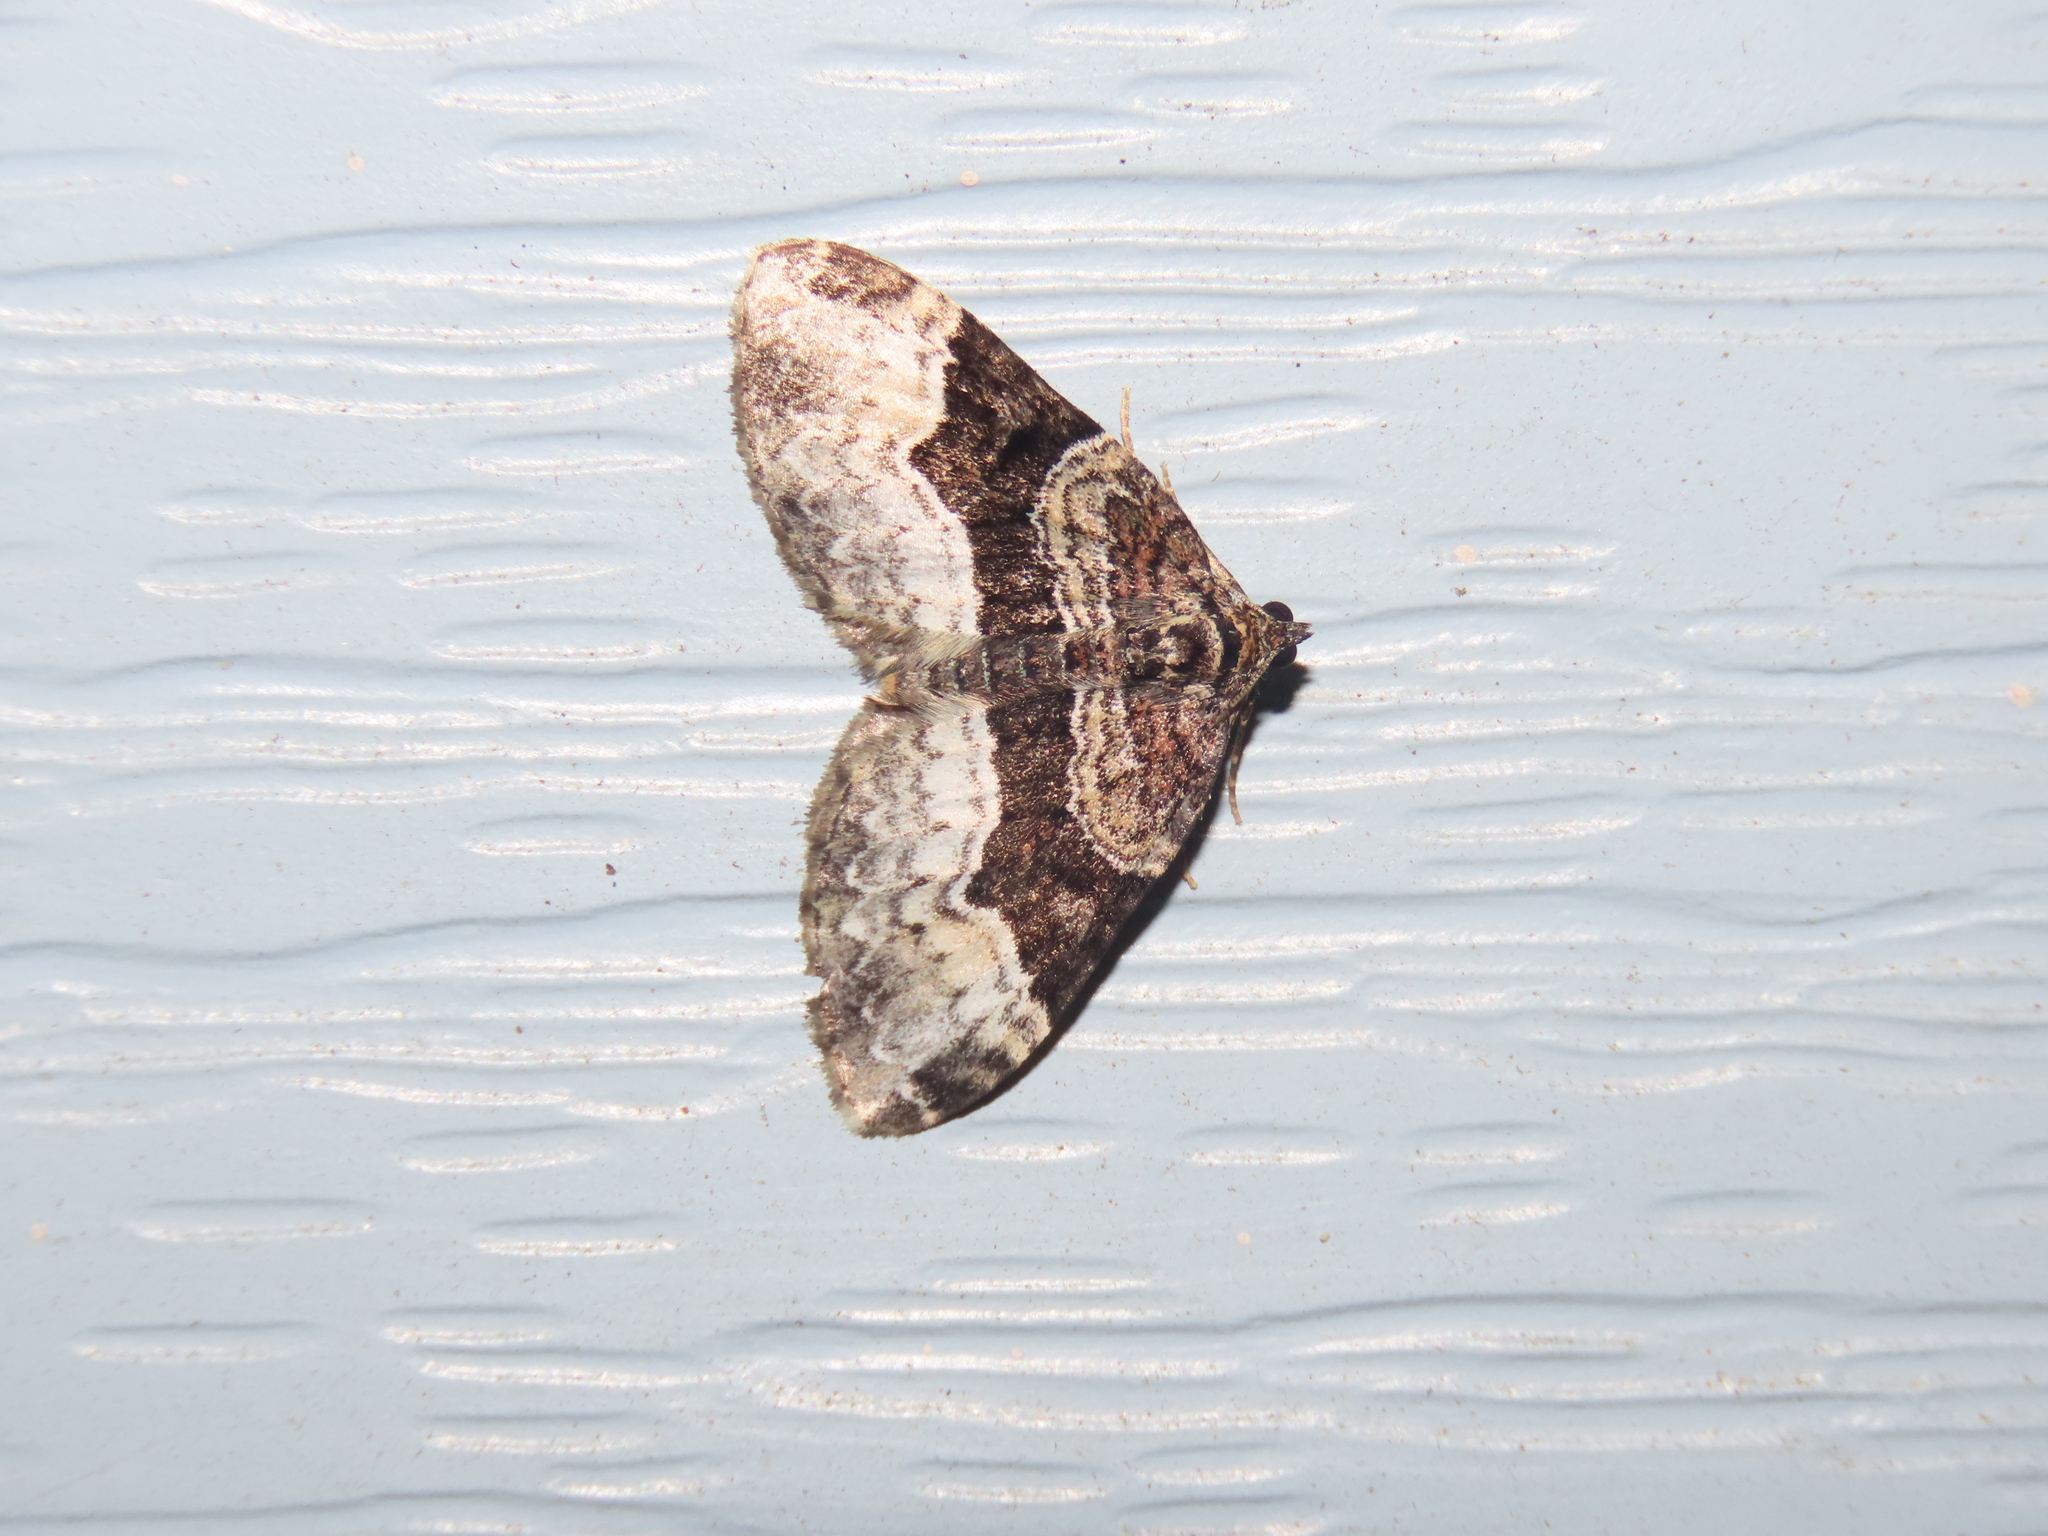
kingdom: Animalia
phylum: Arthropoda
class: Insecta
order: Lepidoptera
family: Geometridae
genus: Euphyia
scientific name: Euphyia intermediata
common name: Sharp-angled carpet
